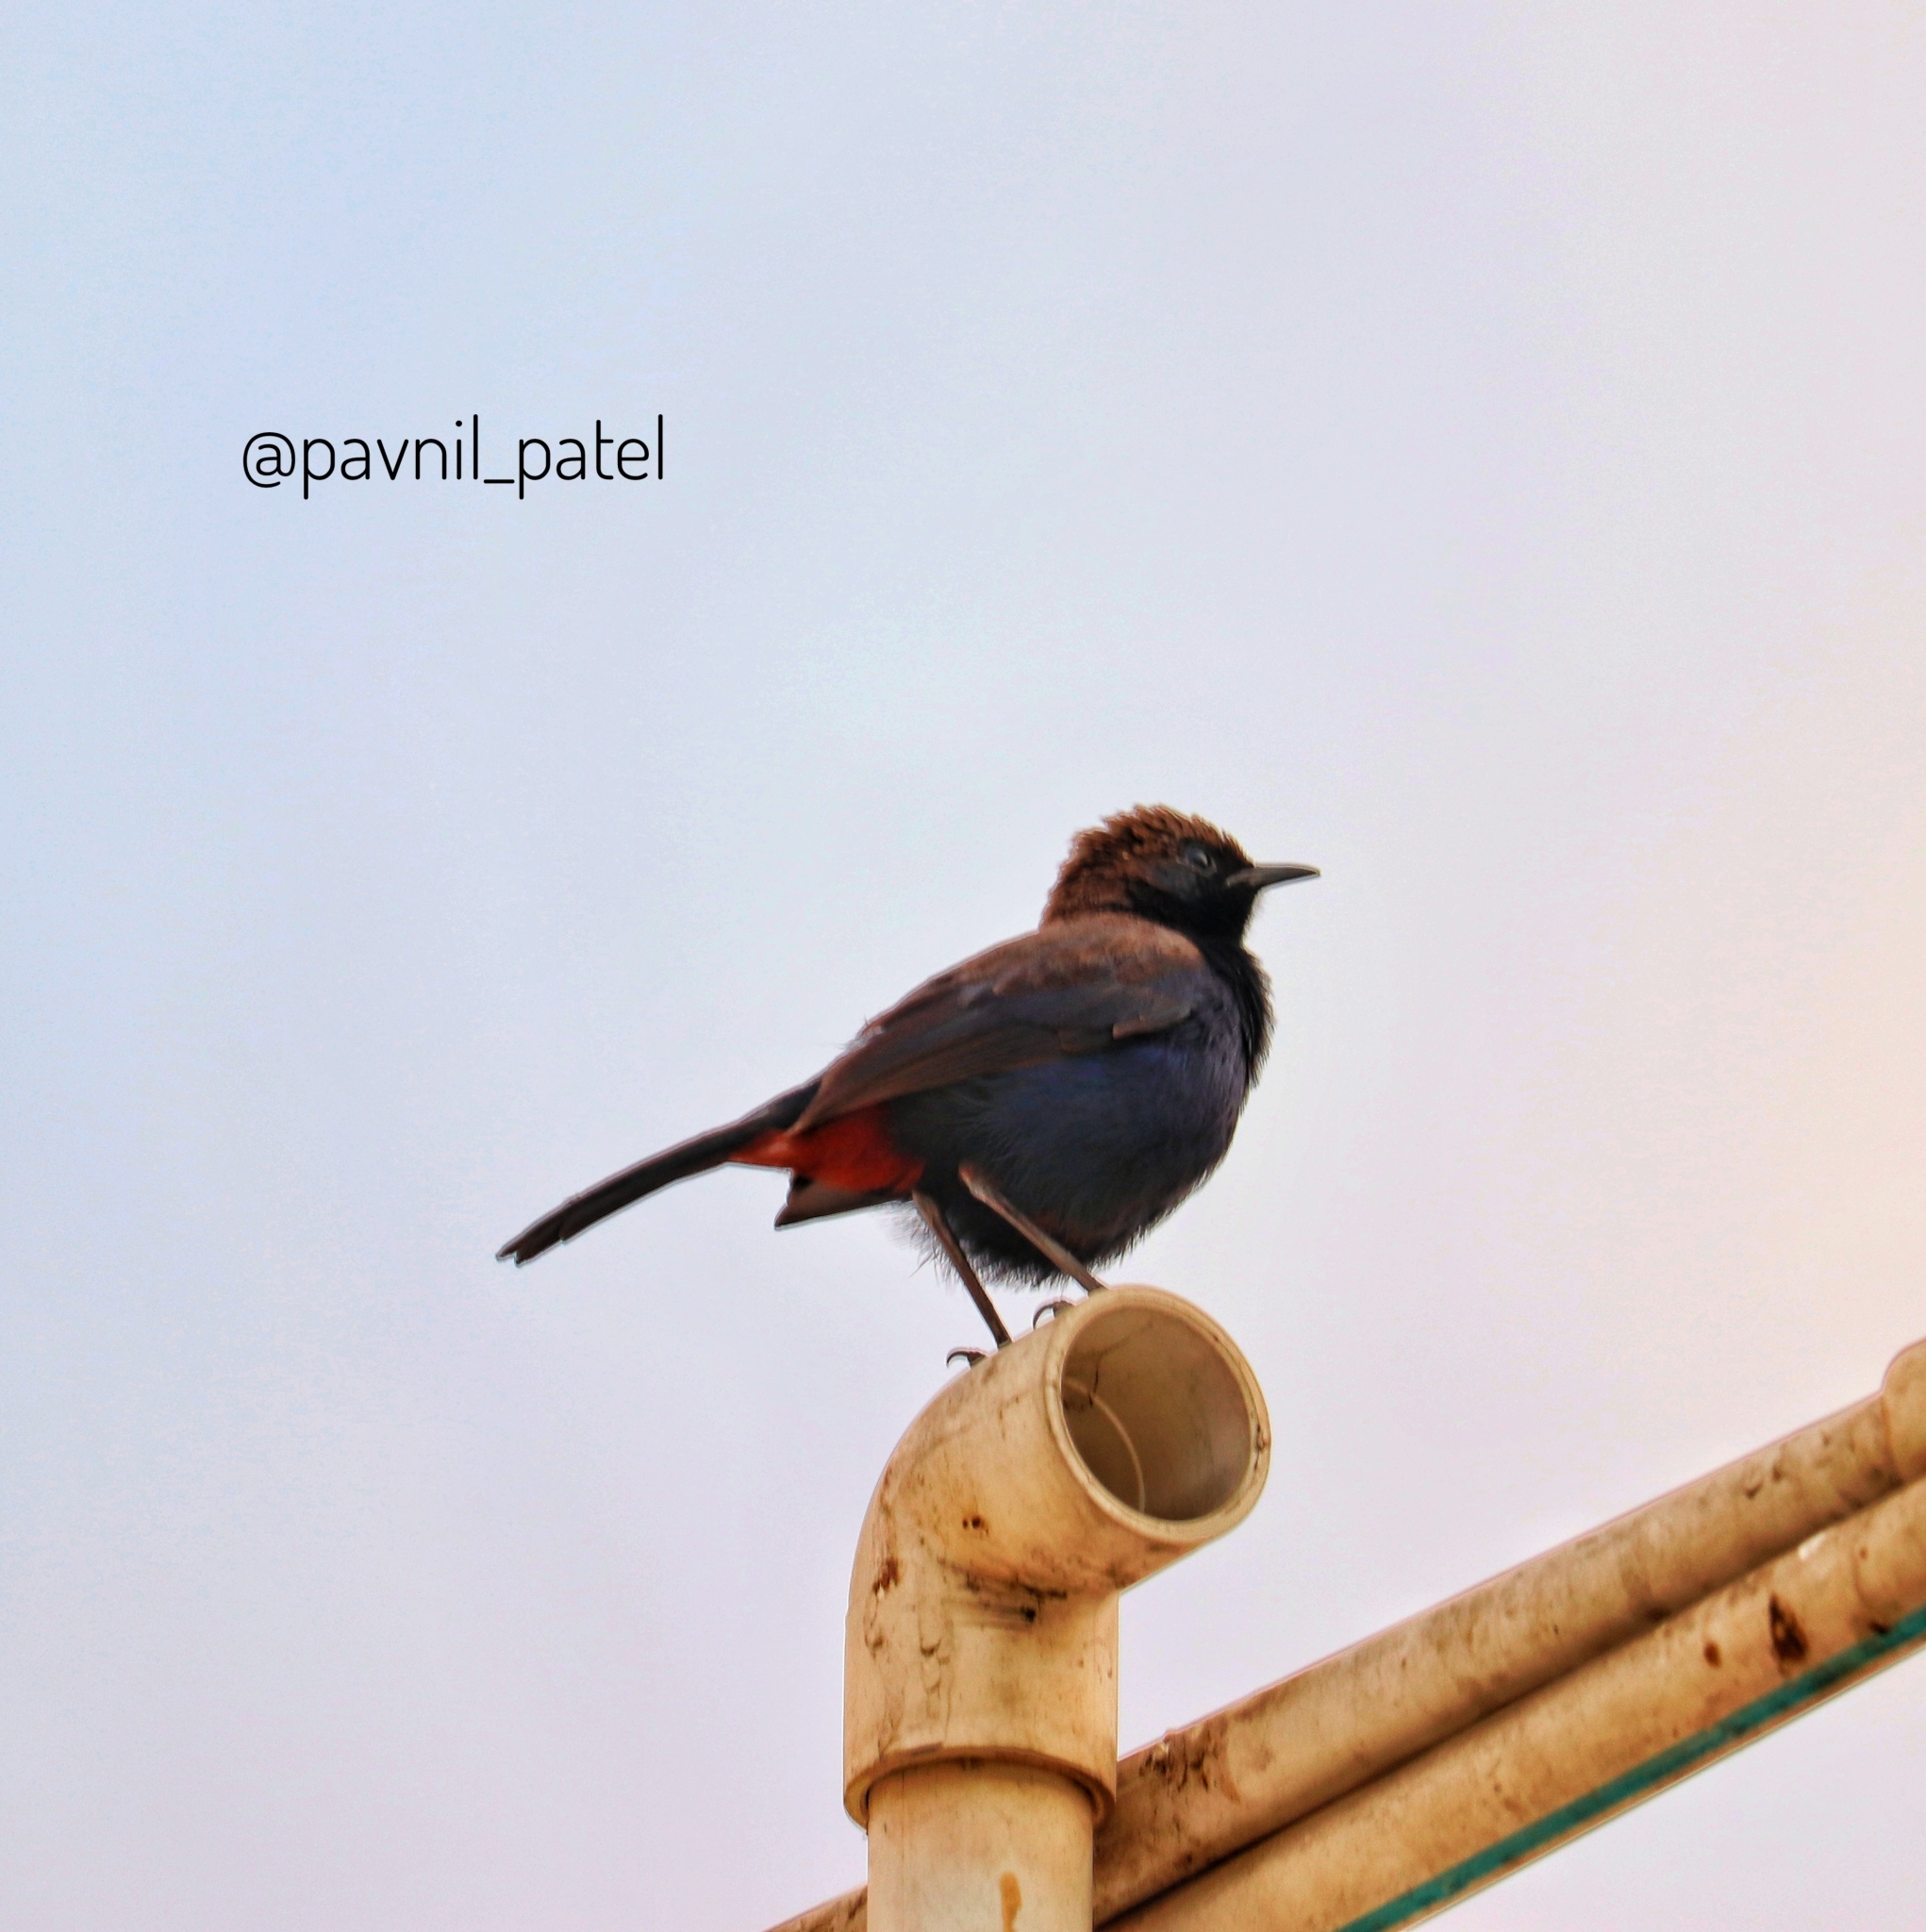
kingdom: Animalia
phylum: Chordata
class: Aves
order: Passeriformes
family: Muscicapidae
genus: Saxicoloides
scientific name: Saxicoloides fulicatus
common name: Indian robin
